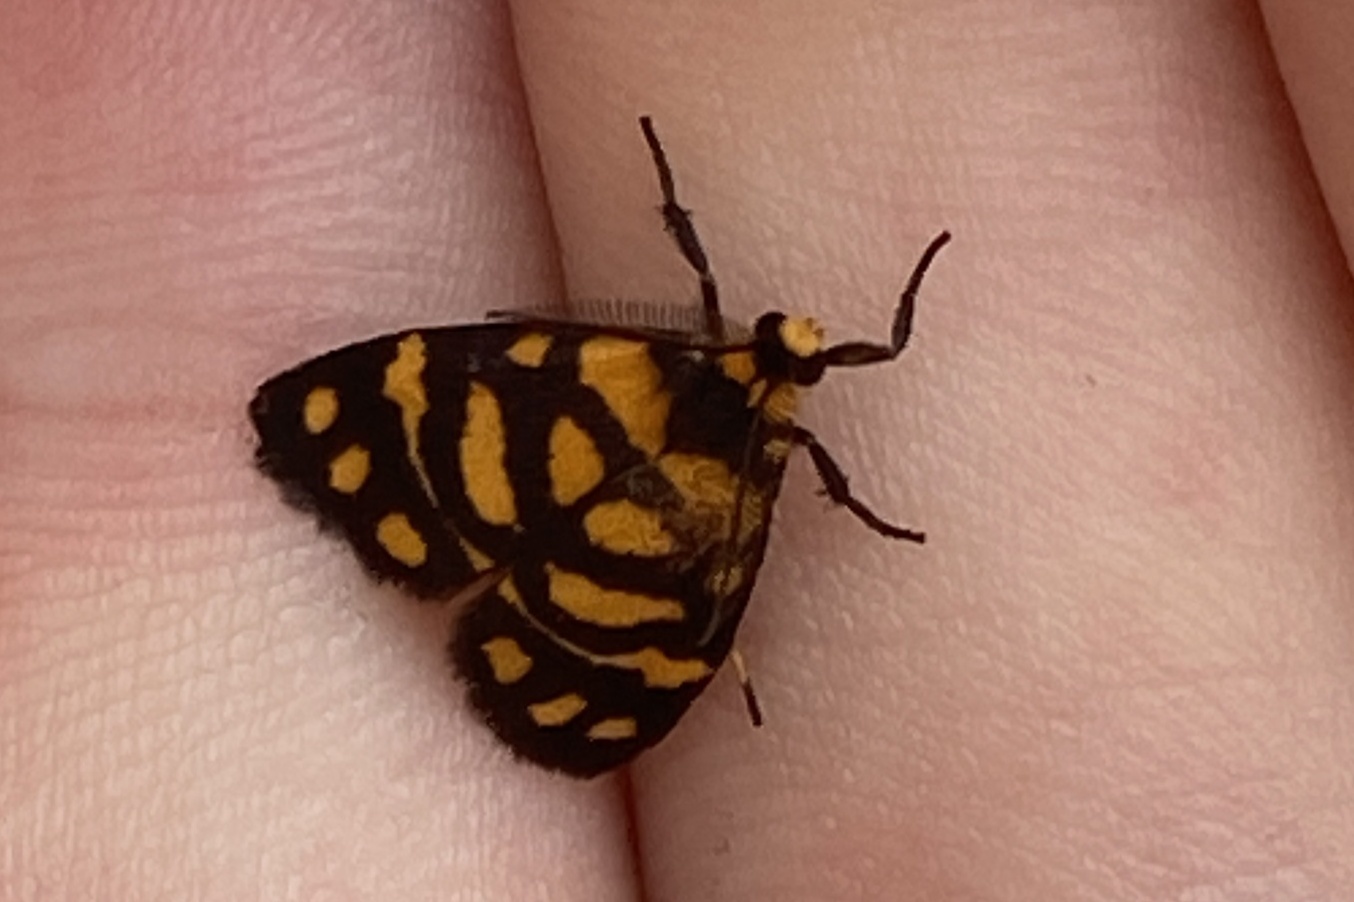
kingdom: Animalia
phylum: Arthropoda
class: Insecta
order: Lepidoptera
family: Erebidae
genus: Asura
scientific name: Asura lydia
